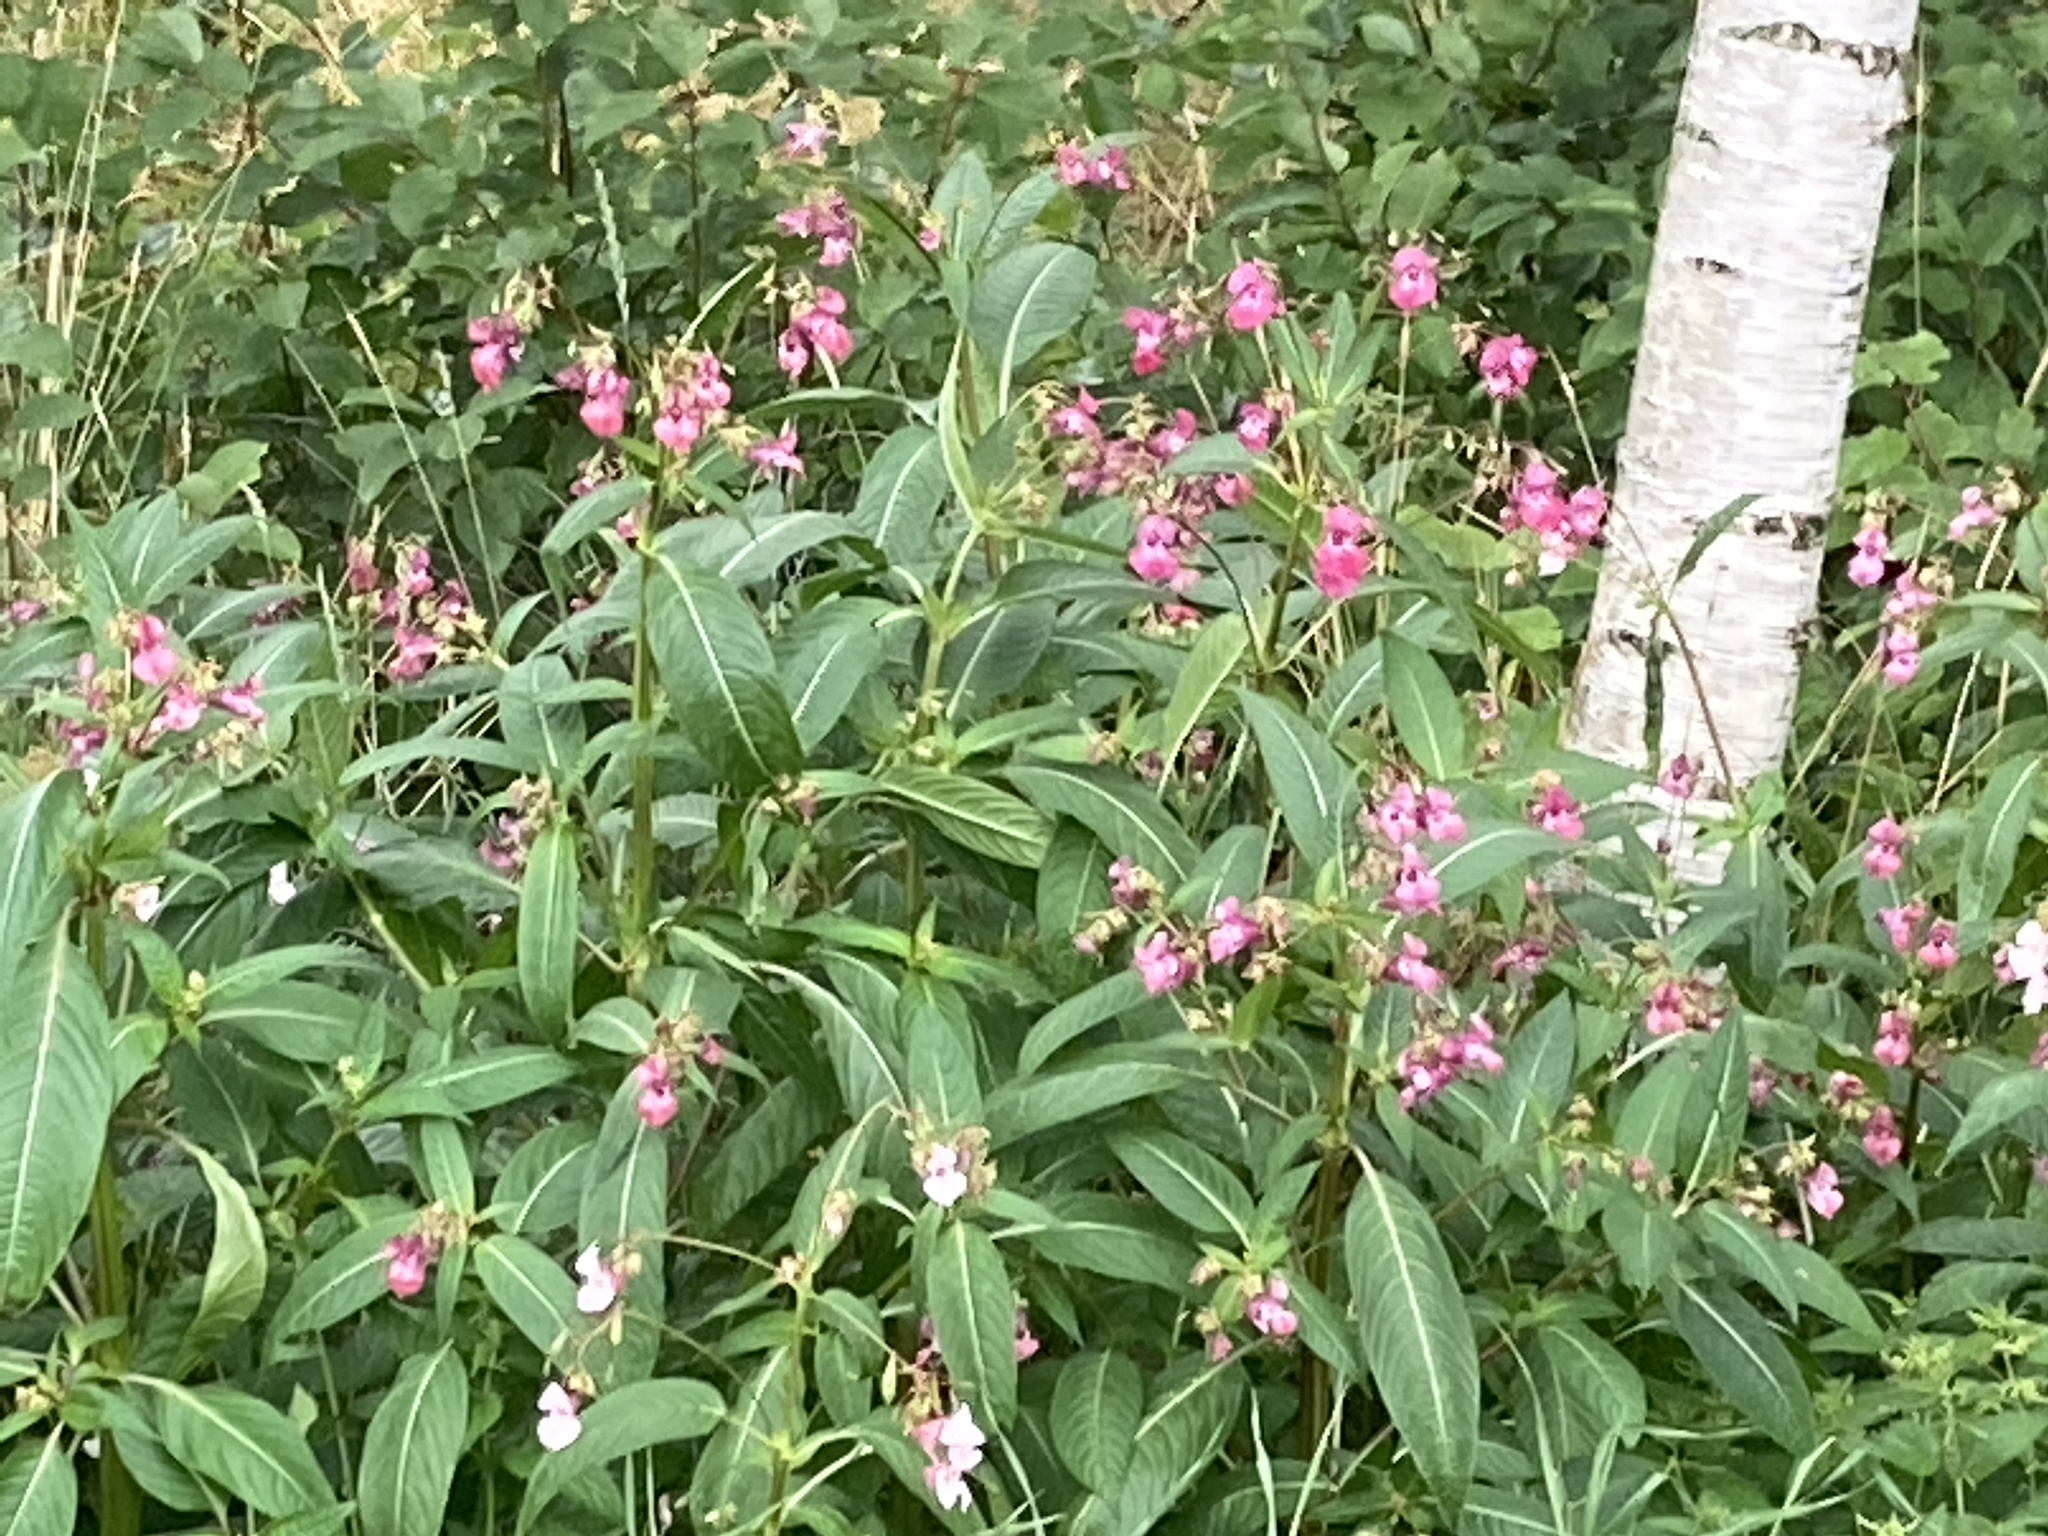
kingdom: Plantae
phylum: Tracheophyta
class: Magnoliopsida
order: Ericales
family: Balsaminaceae
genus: Impatiens
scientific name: Impatiens glandulifera
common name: Himalayan balsam
